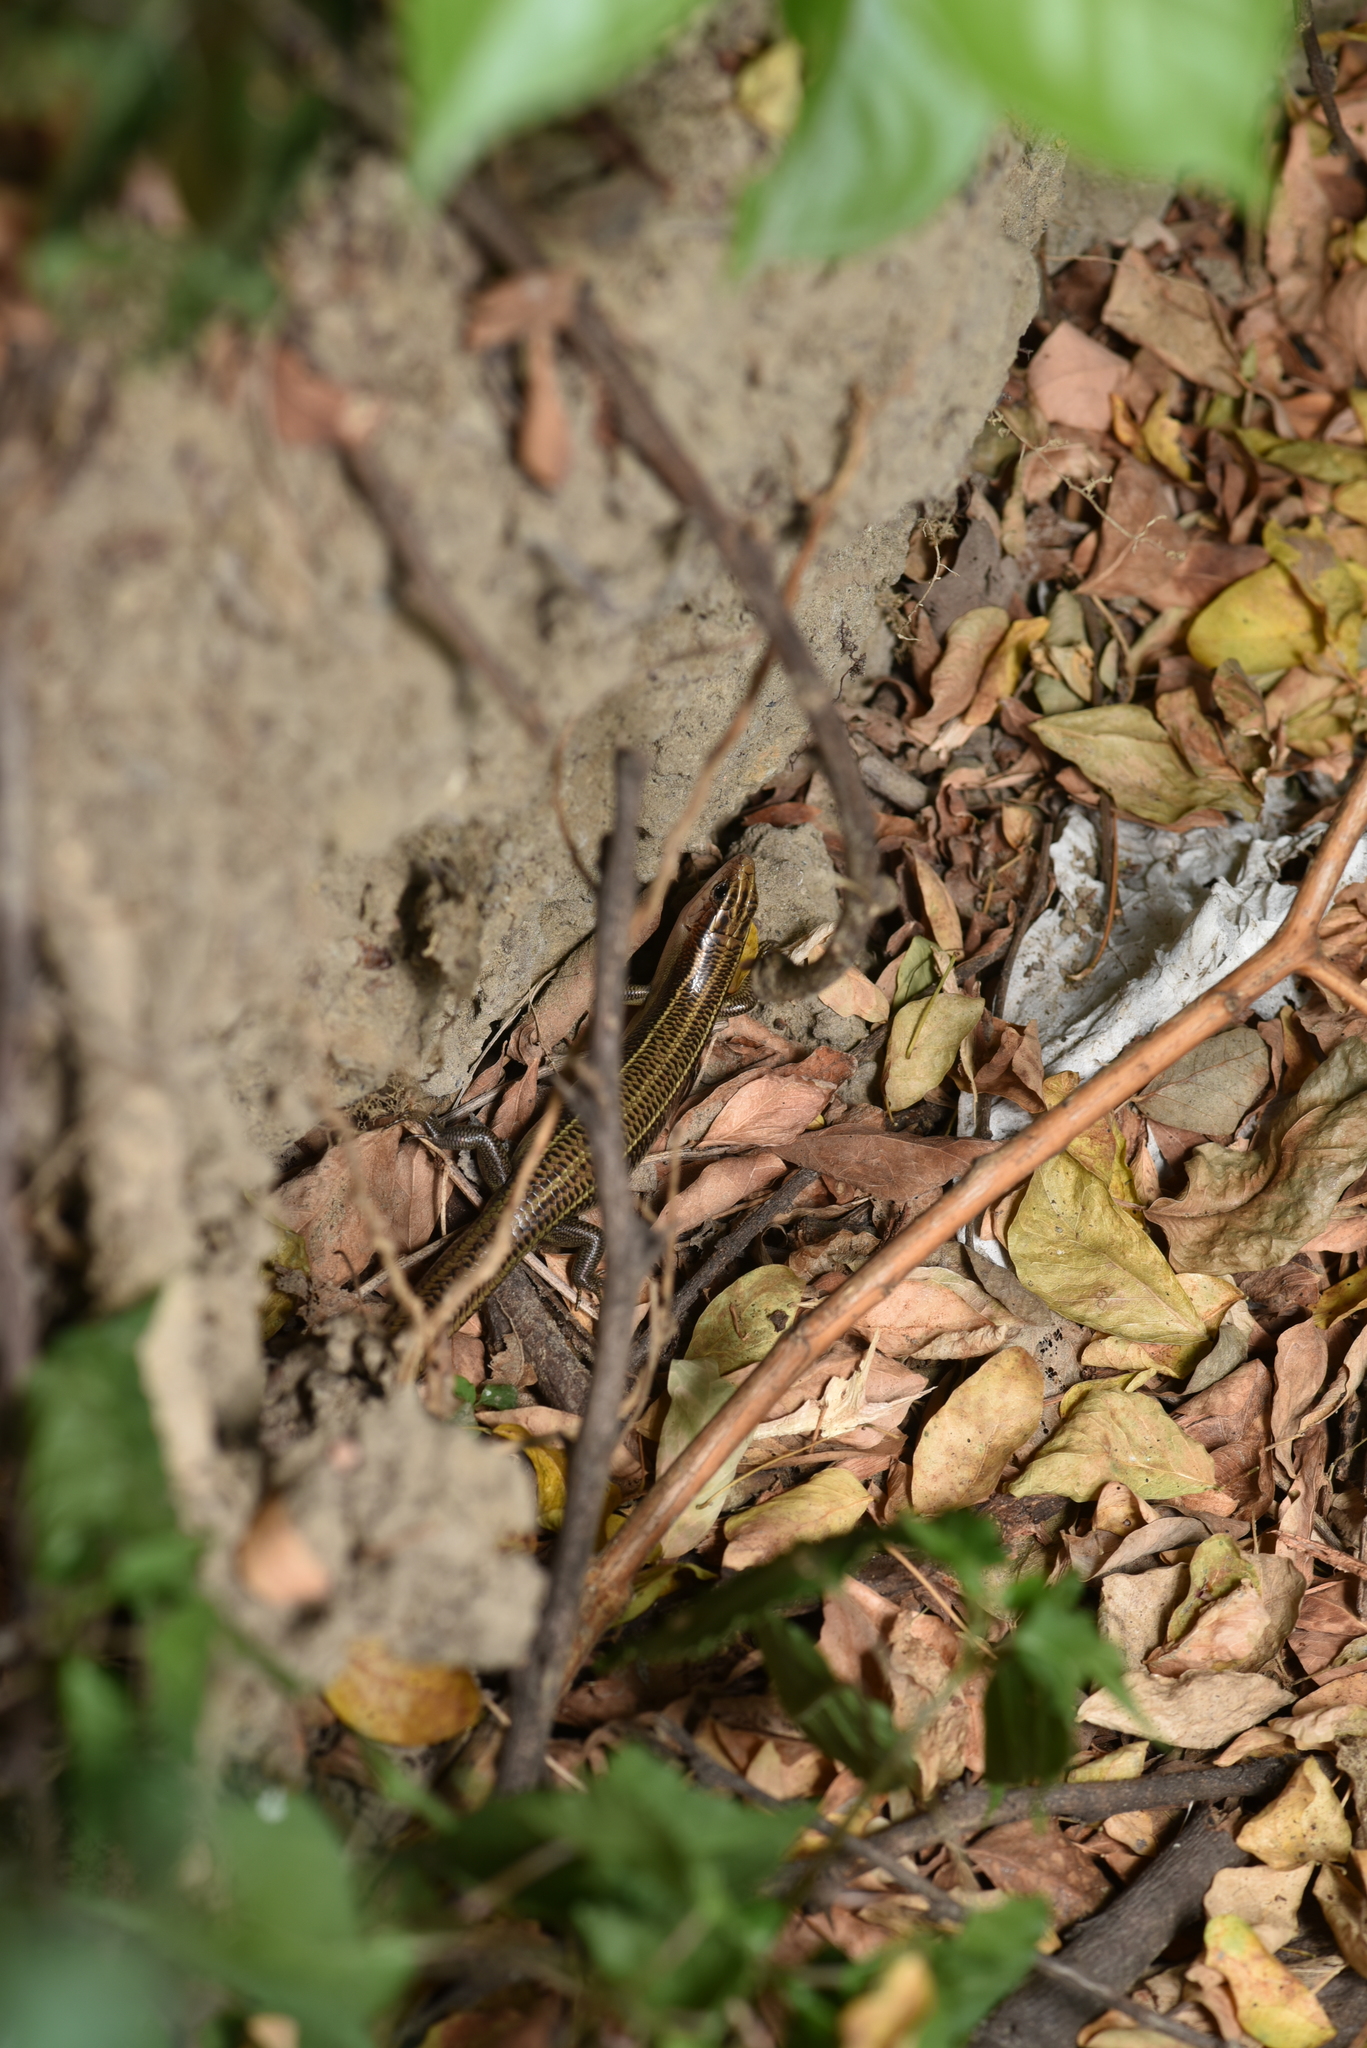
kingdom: Animalia
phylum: Chordata
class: Squamata
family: Scincidae
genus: Plestiodon
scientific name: Plestiodon elegans
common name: Shanghai elegant skink
